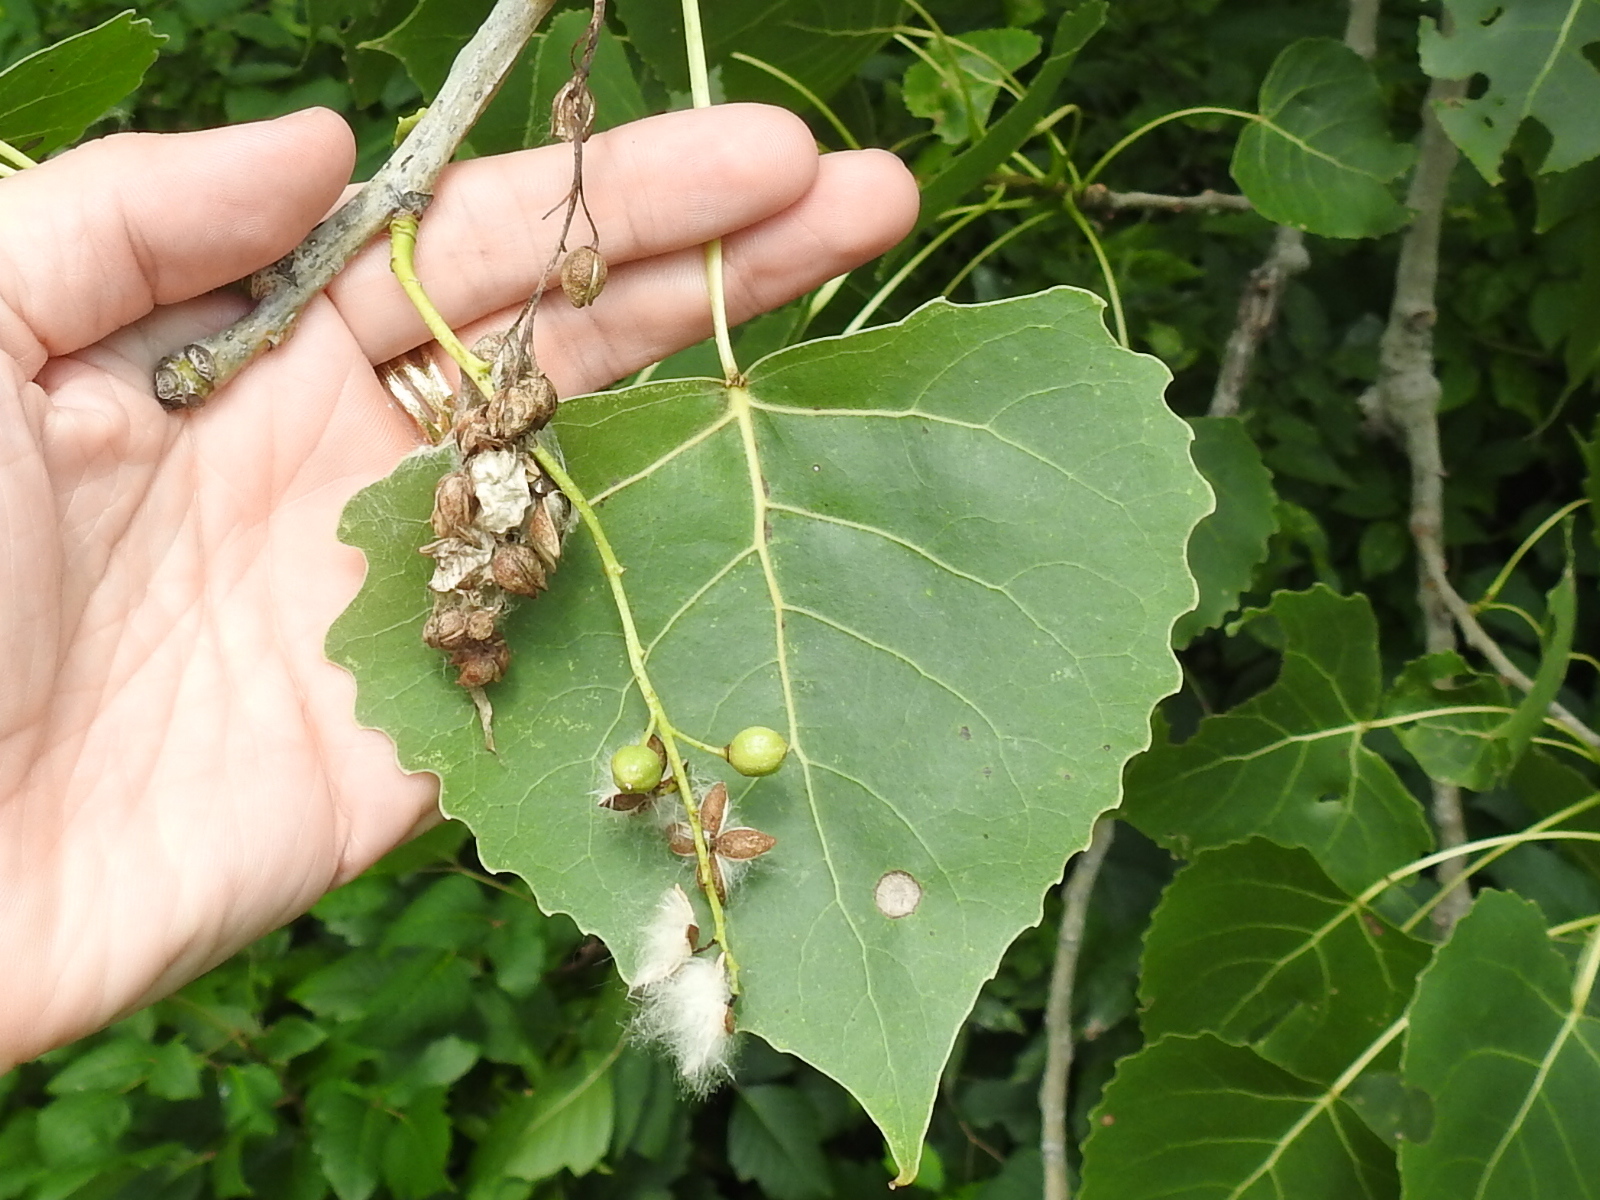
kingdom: Plantae
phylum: Tracheophyta
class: Magnoliopsida
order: Malpighiales
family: Salicaceae
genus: Populus
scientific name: Populus deltoides
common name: Eastern cottonwood
